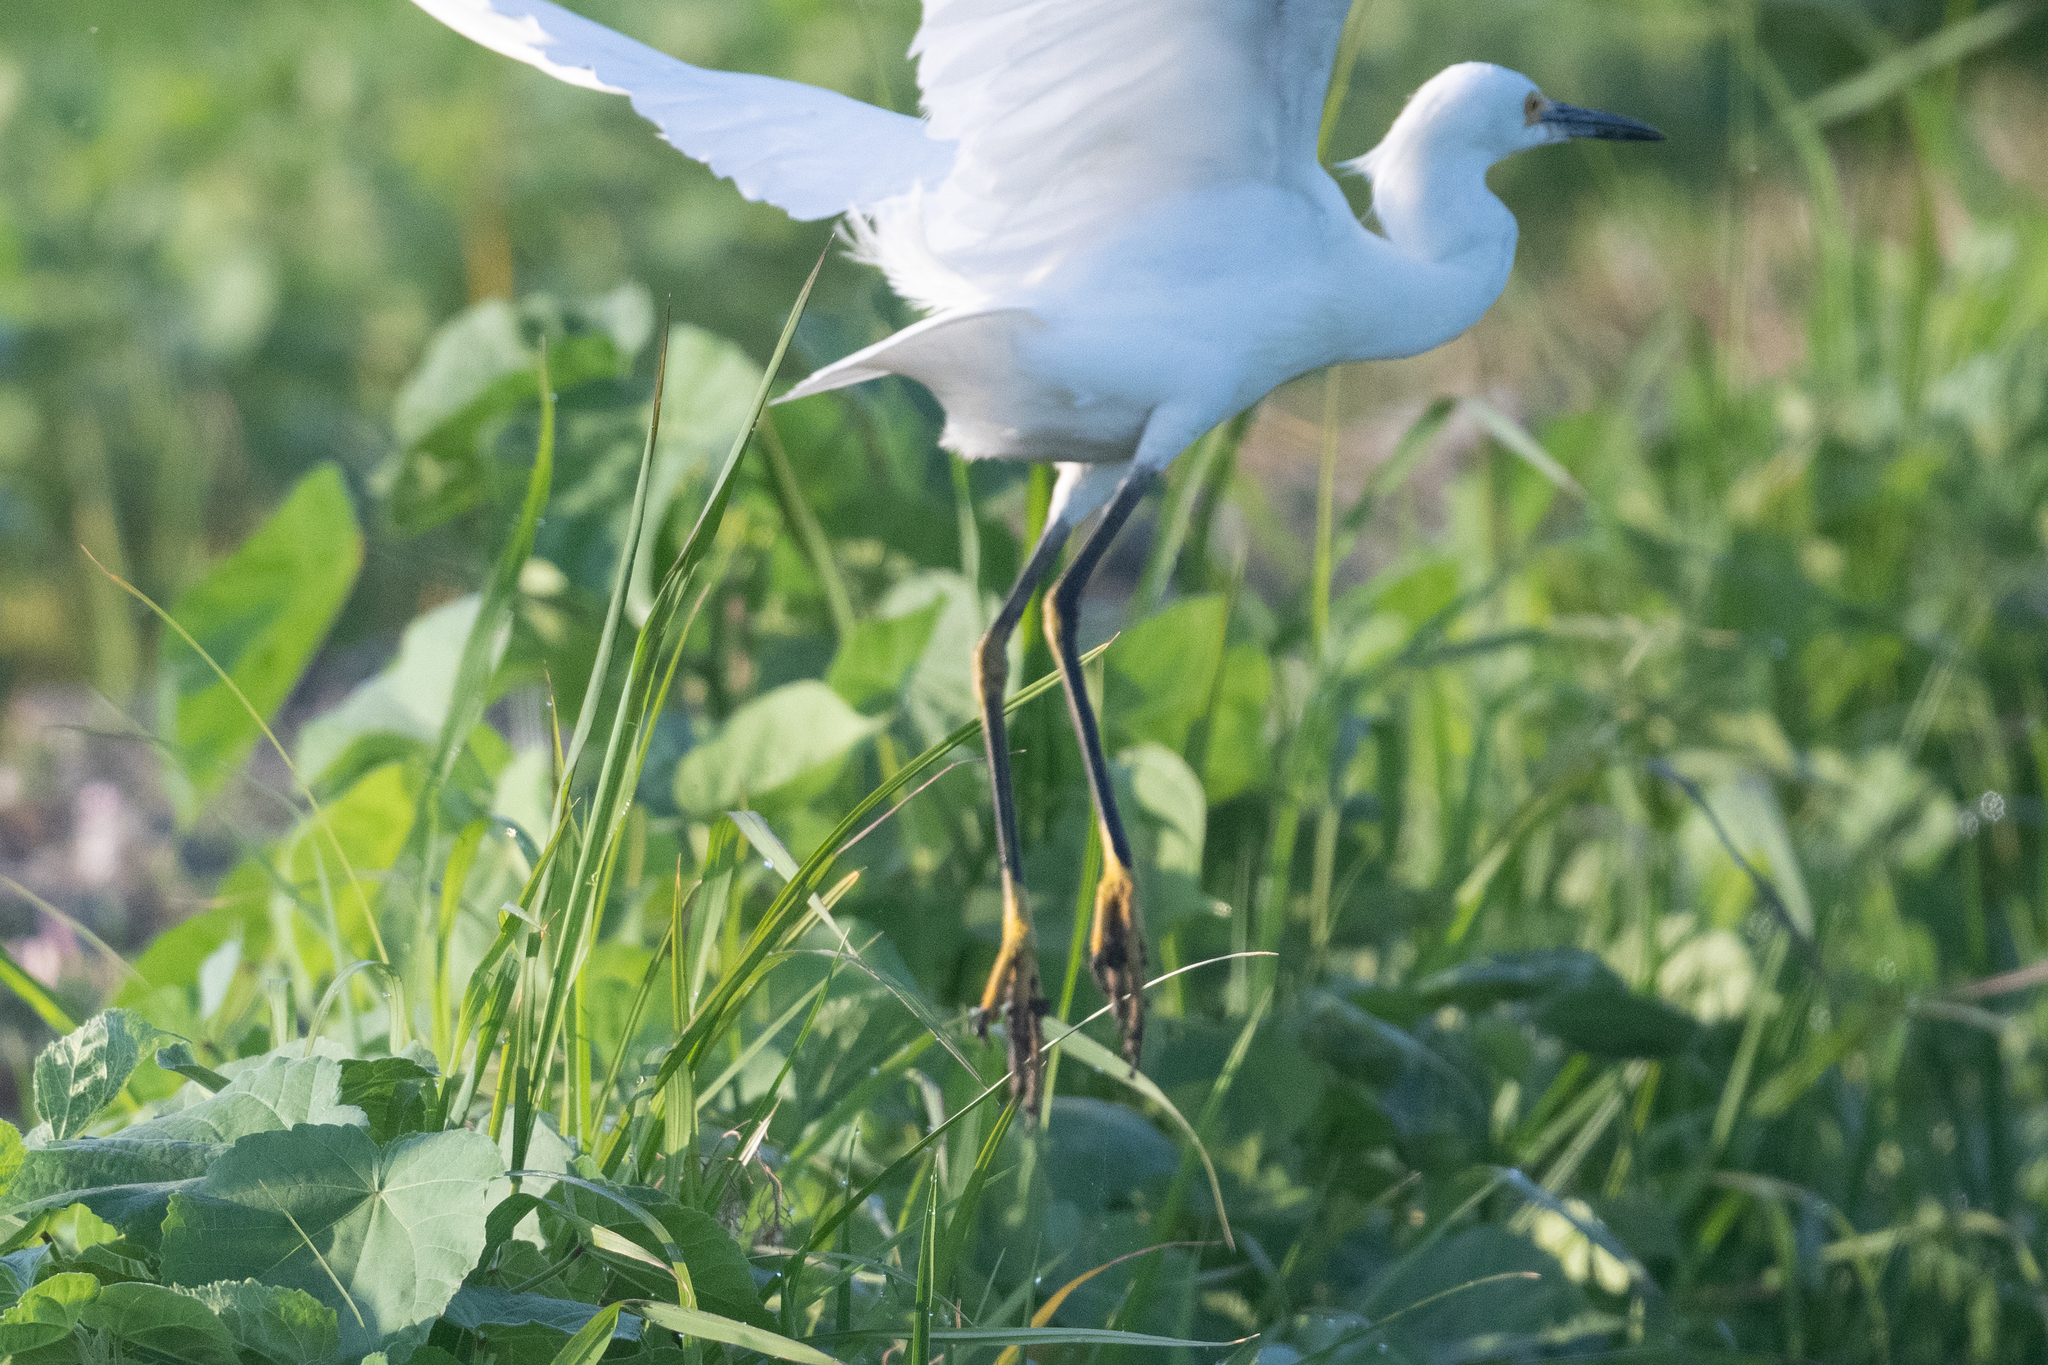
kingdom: Animalia
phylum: Chordata
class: Aves
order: Pelecaniformes
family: Ardeidae
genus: Egretta
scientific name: Egretta thula
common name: Snowy egret
